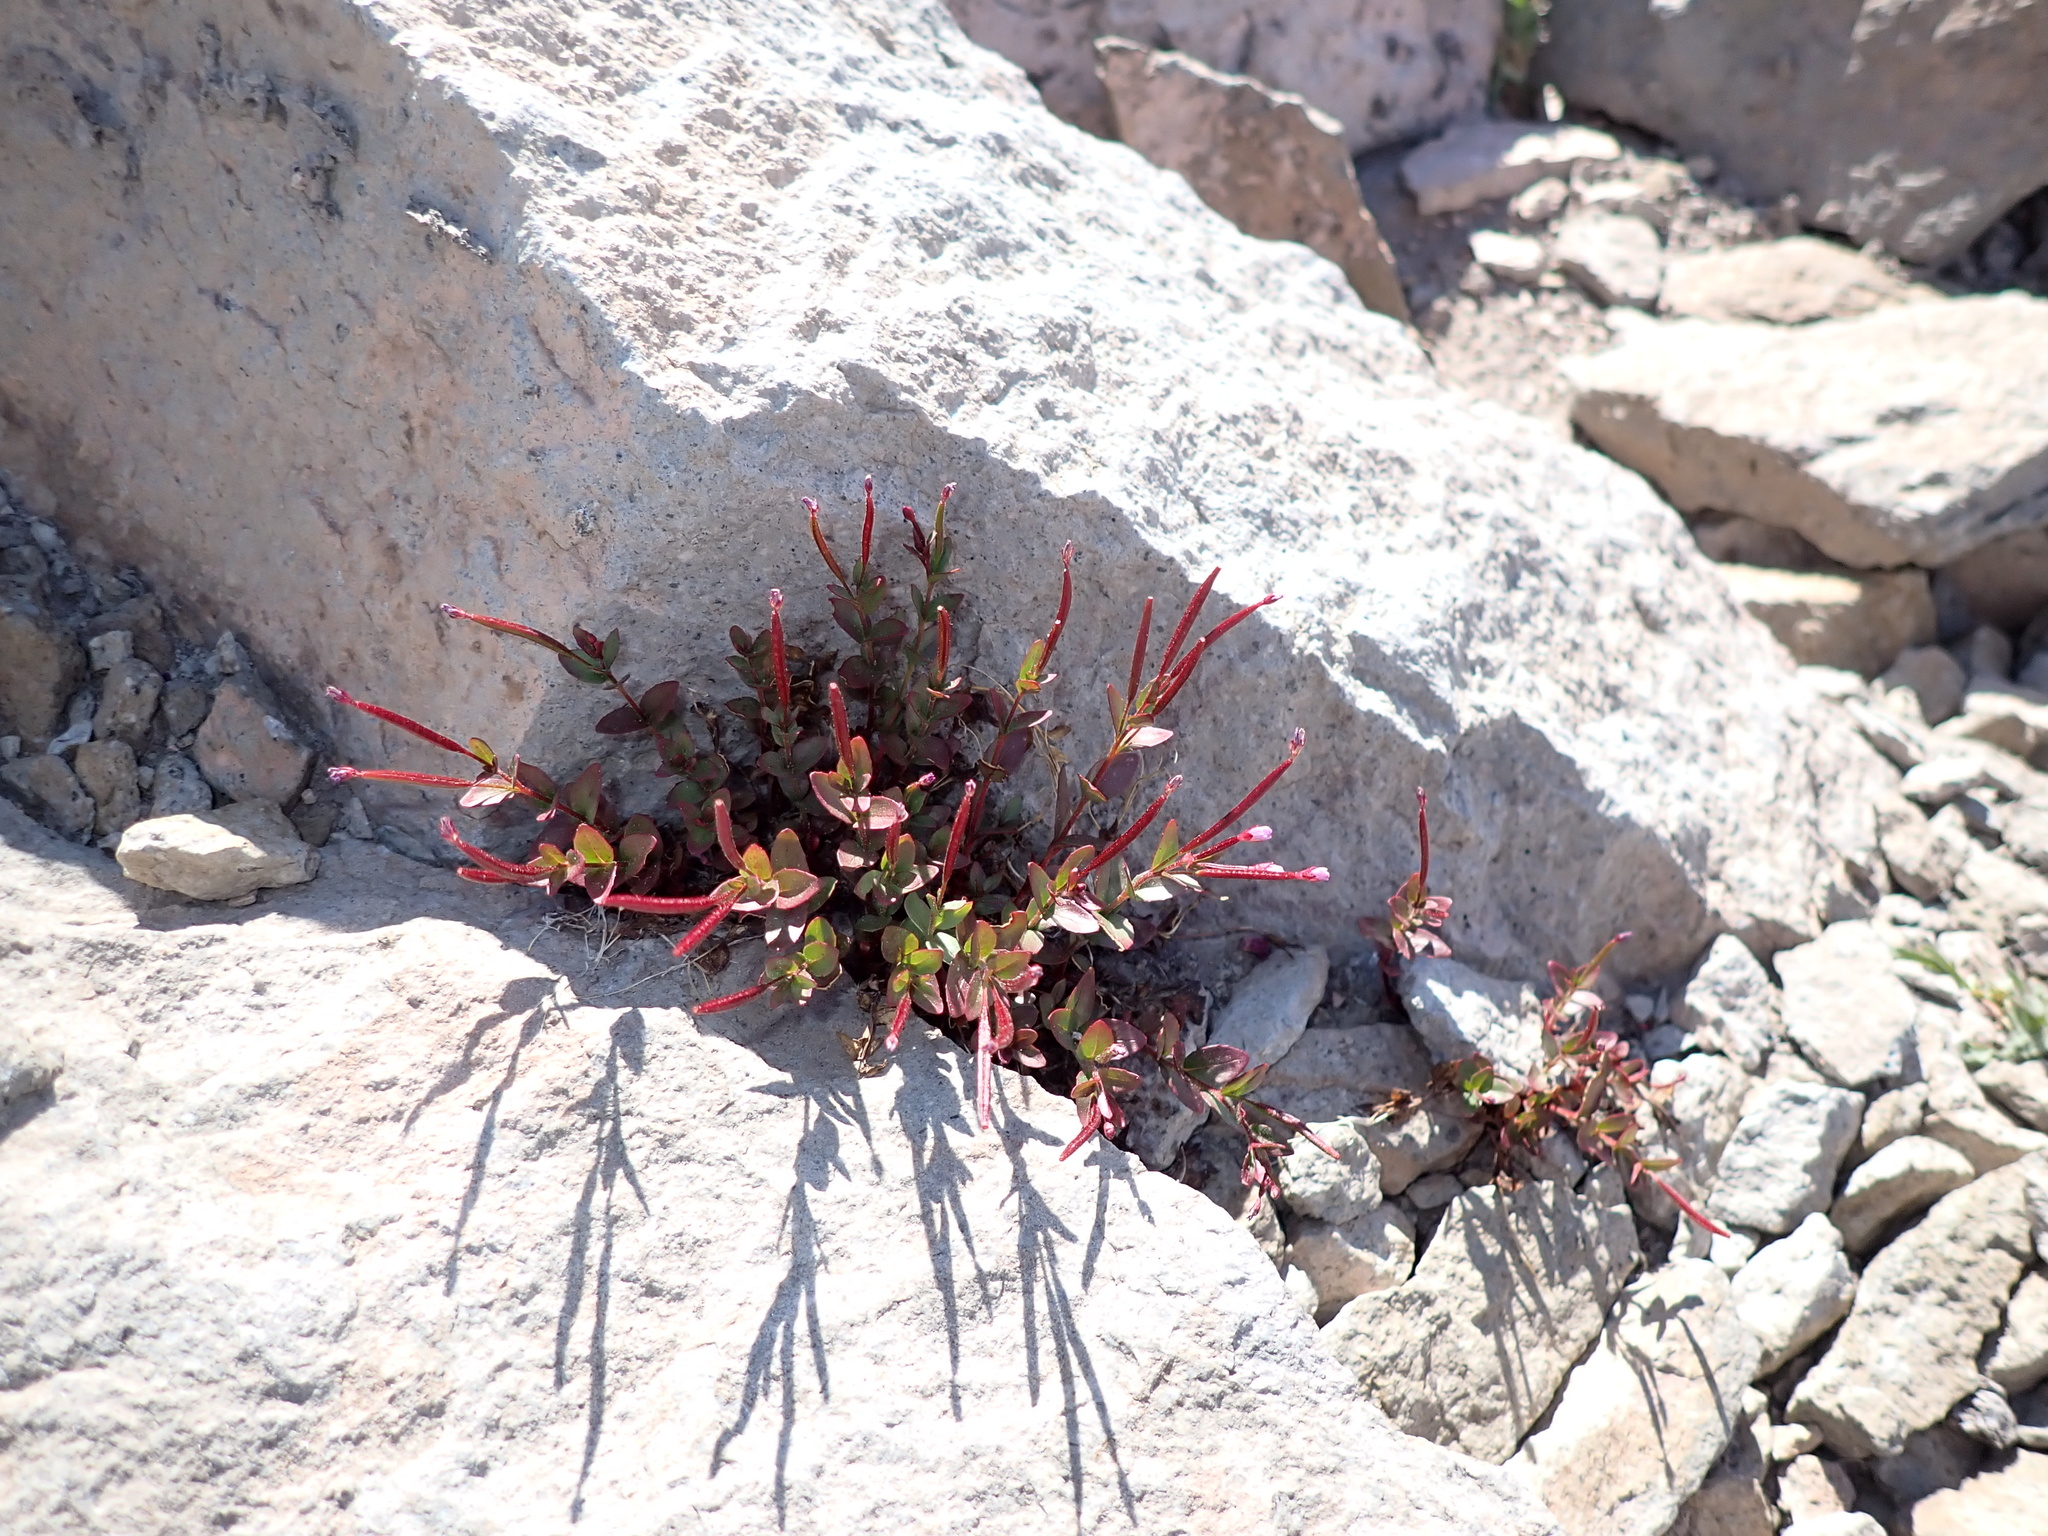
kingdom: Plantae
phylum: Tracheophyta
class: Magnoliopsida
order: Myrtales
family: Onagraceae
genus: Epilobium
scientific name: Epilobium minutum
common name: Chaparral willowherb
